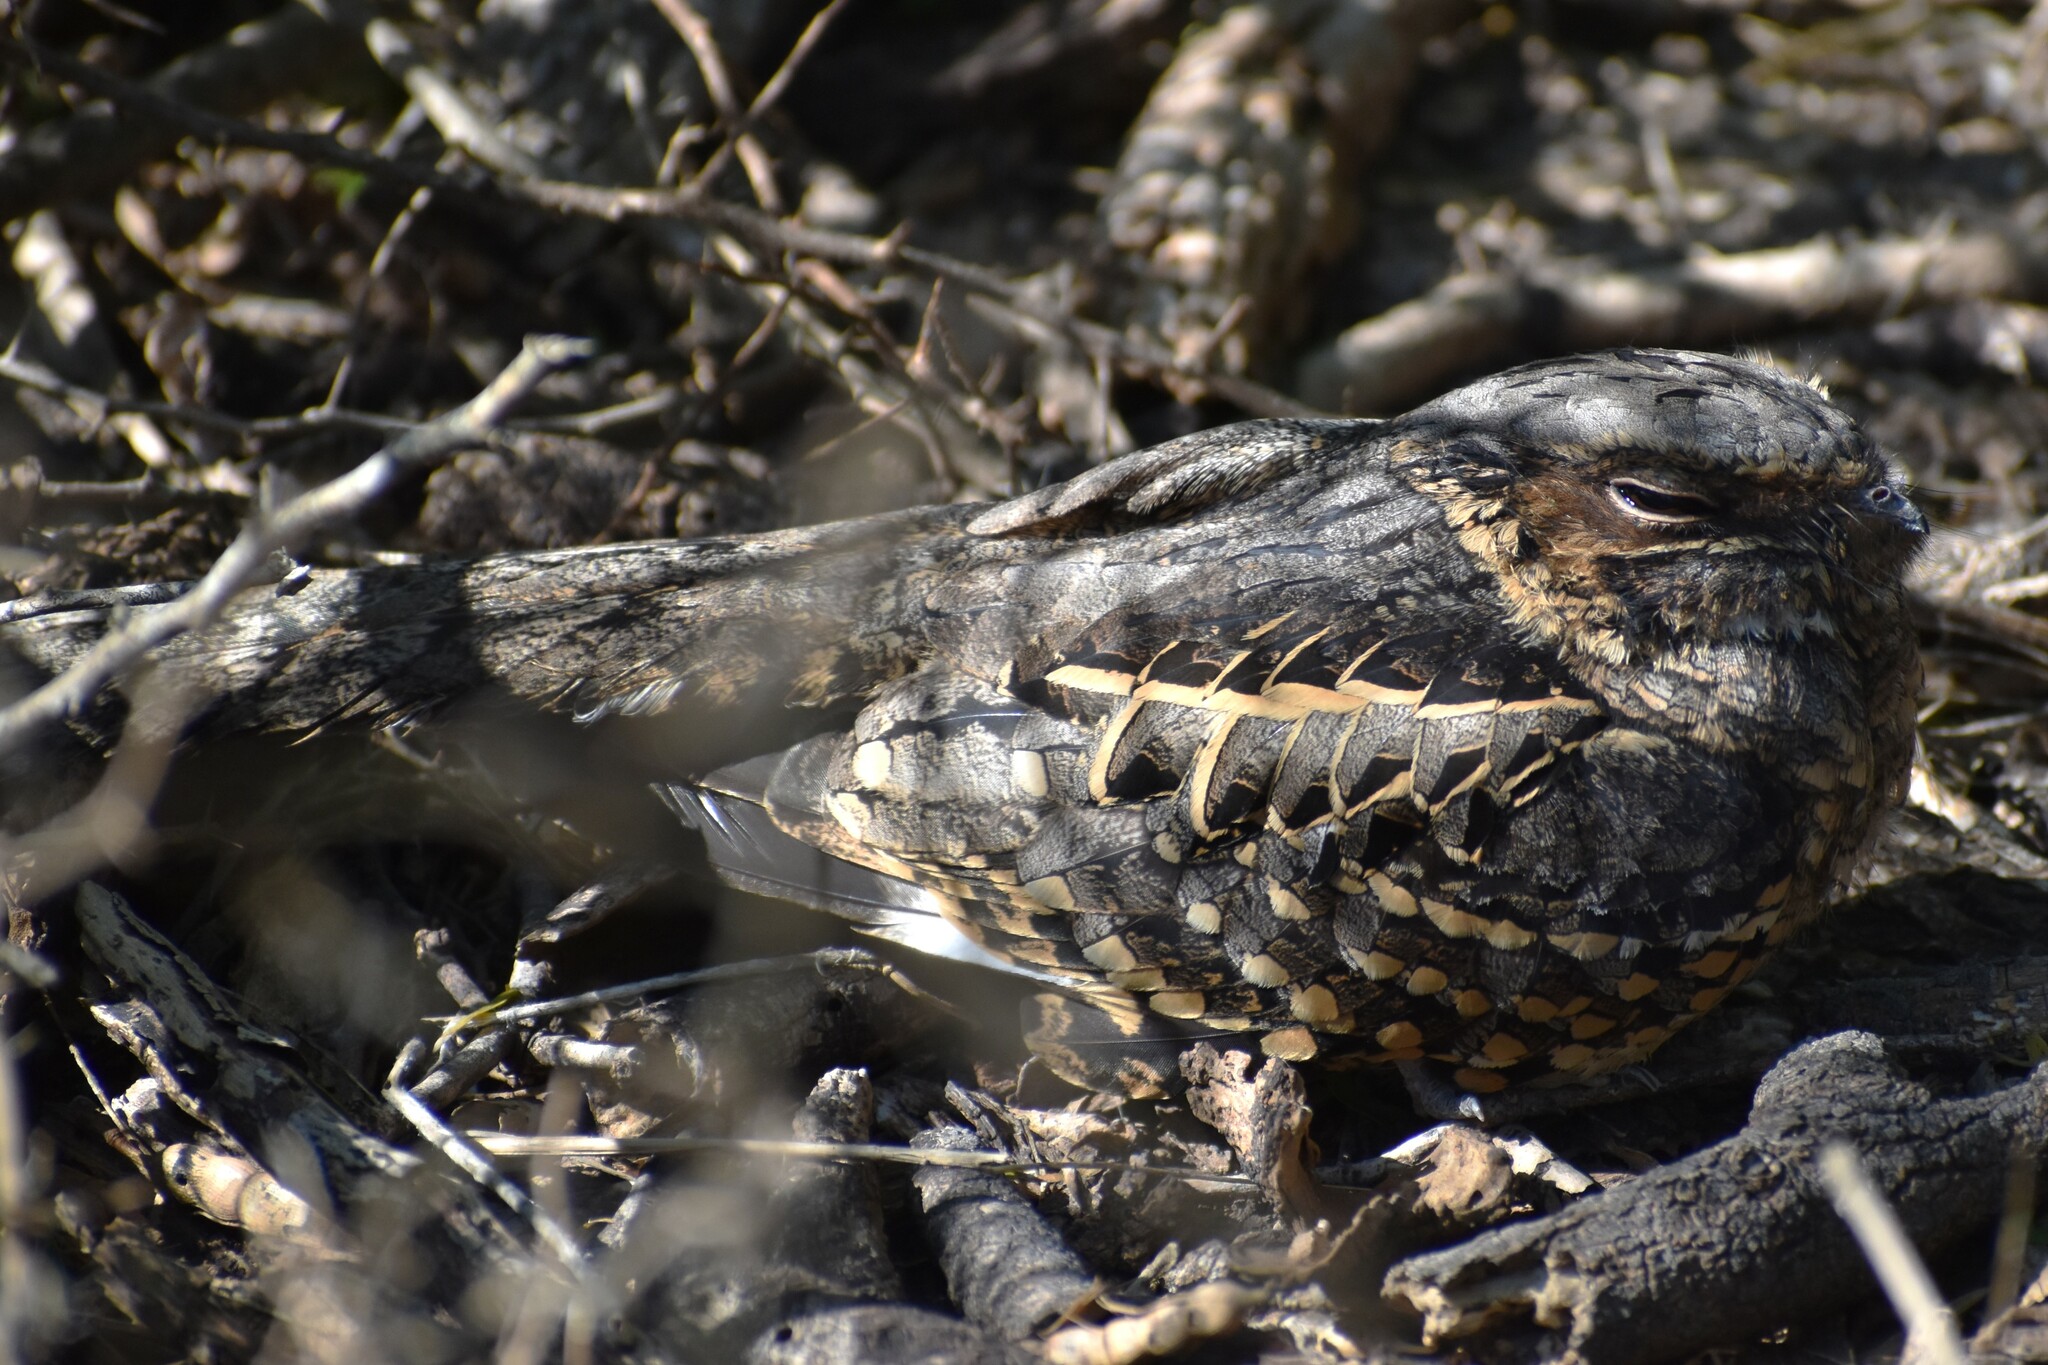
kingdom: Animalia
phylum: Chordata
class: Aves
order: Caprimulgiformes
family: Caprimulgidae
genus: Nyctidromus
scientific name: Nyctidromus albicollis
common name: Pauraque
